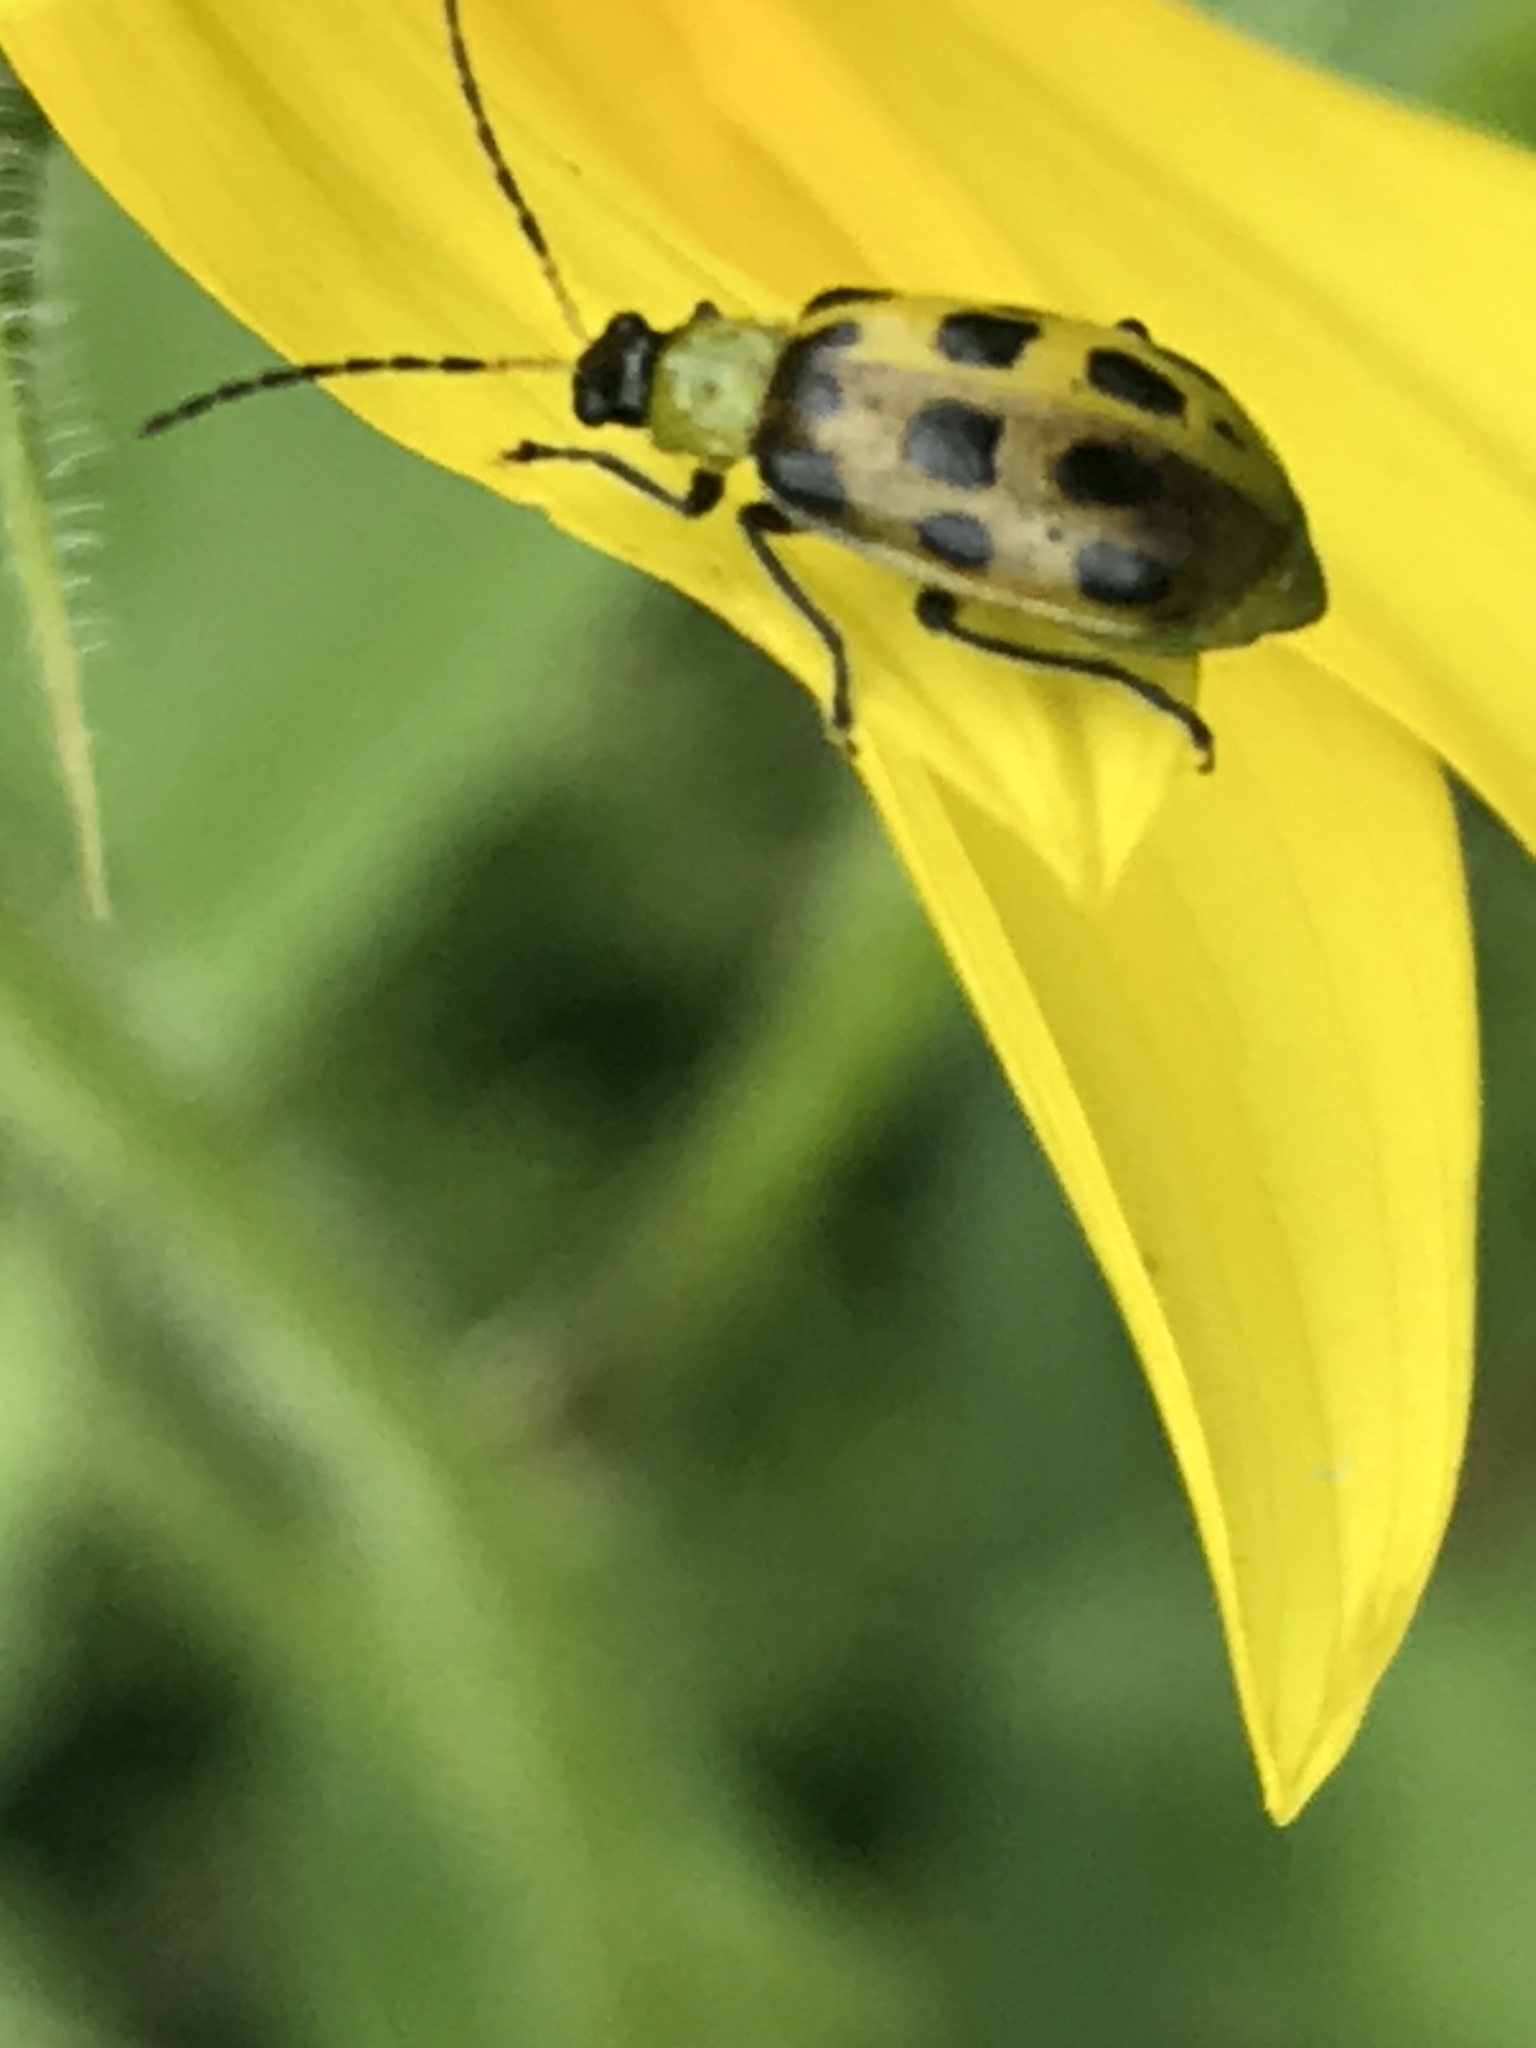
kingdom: Animalia
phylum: Arthropoda
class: Insecta
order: Coleoptera
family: Chrysomelidae
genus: Diabrotica
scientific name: Diabrotica undecimpunctata
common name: Spotted cucumber beetle
